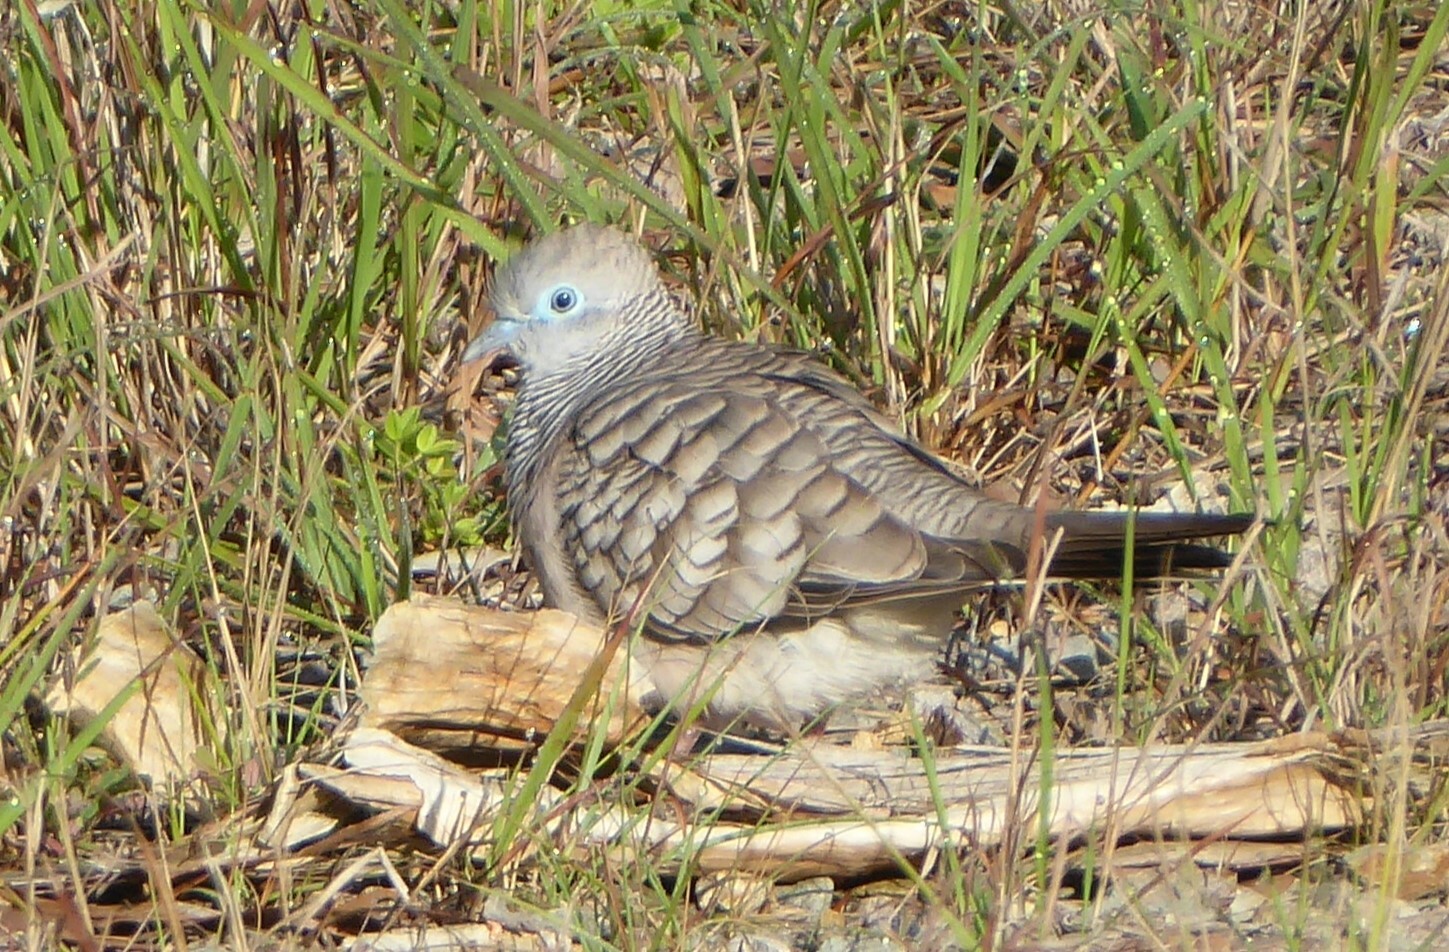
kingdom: Animalia
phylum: Chordata
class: Aves
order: Columbiformes
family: Columbidae
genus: Geopelia
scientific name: Geopelia placida
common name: Peaceful dove
